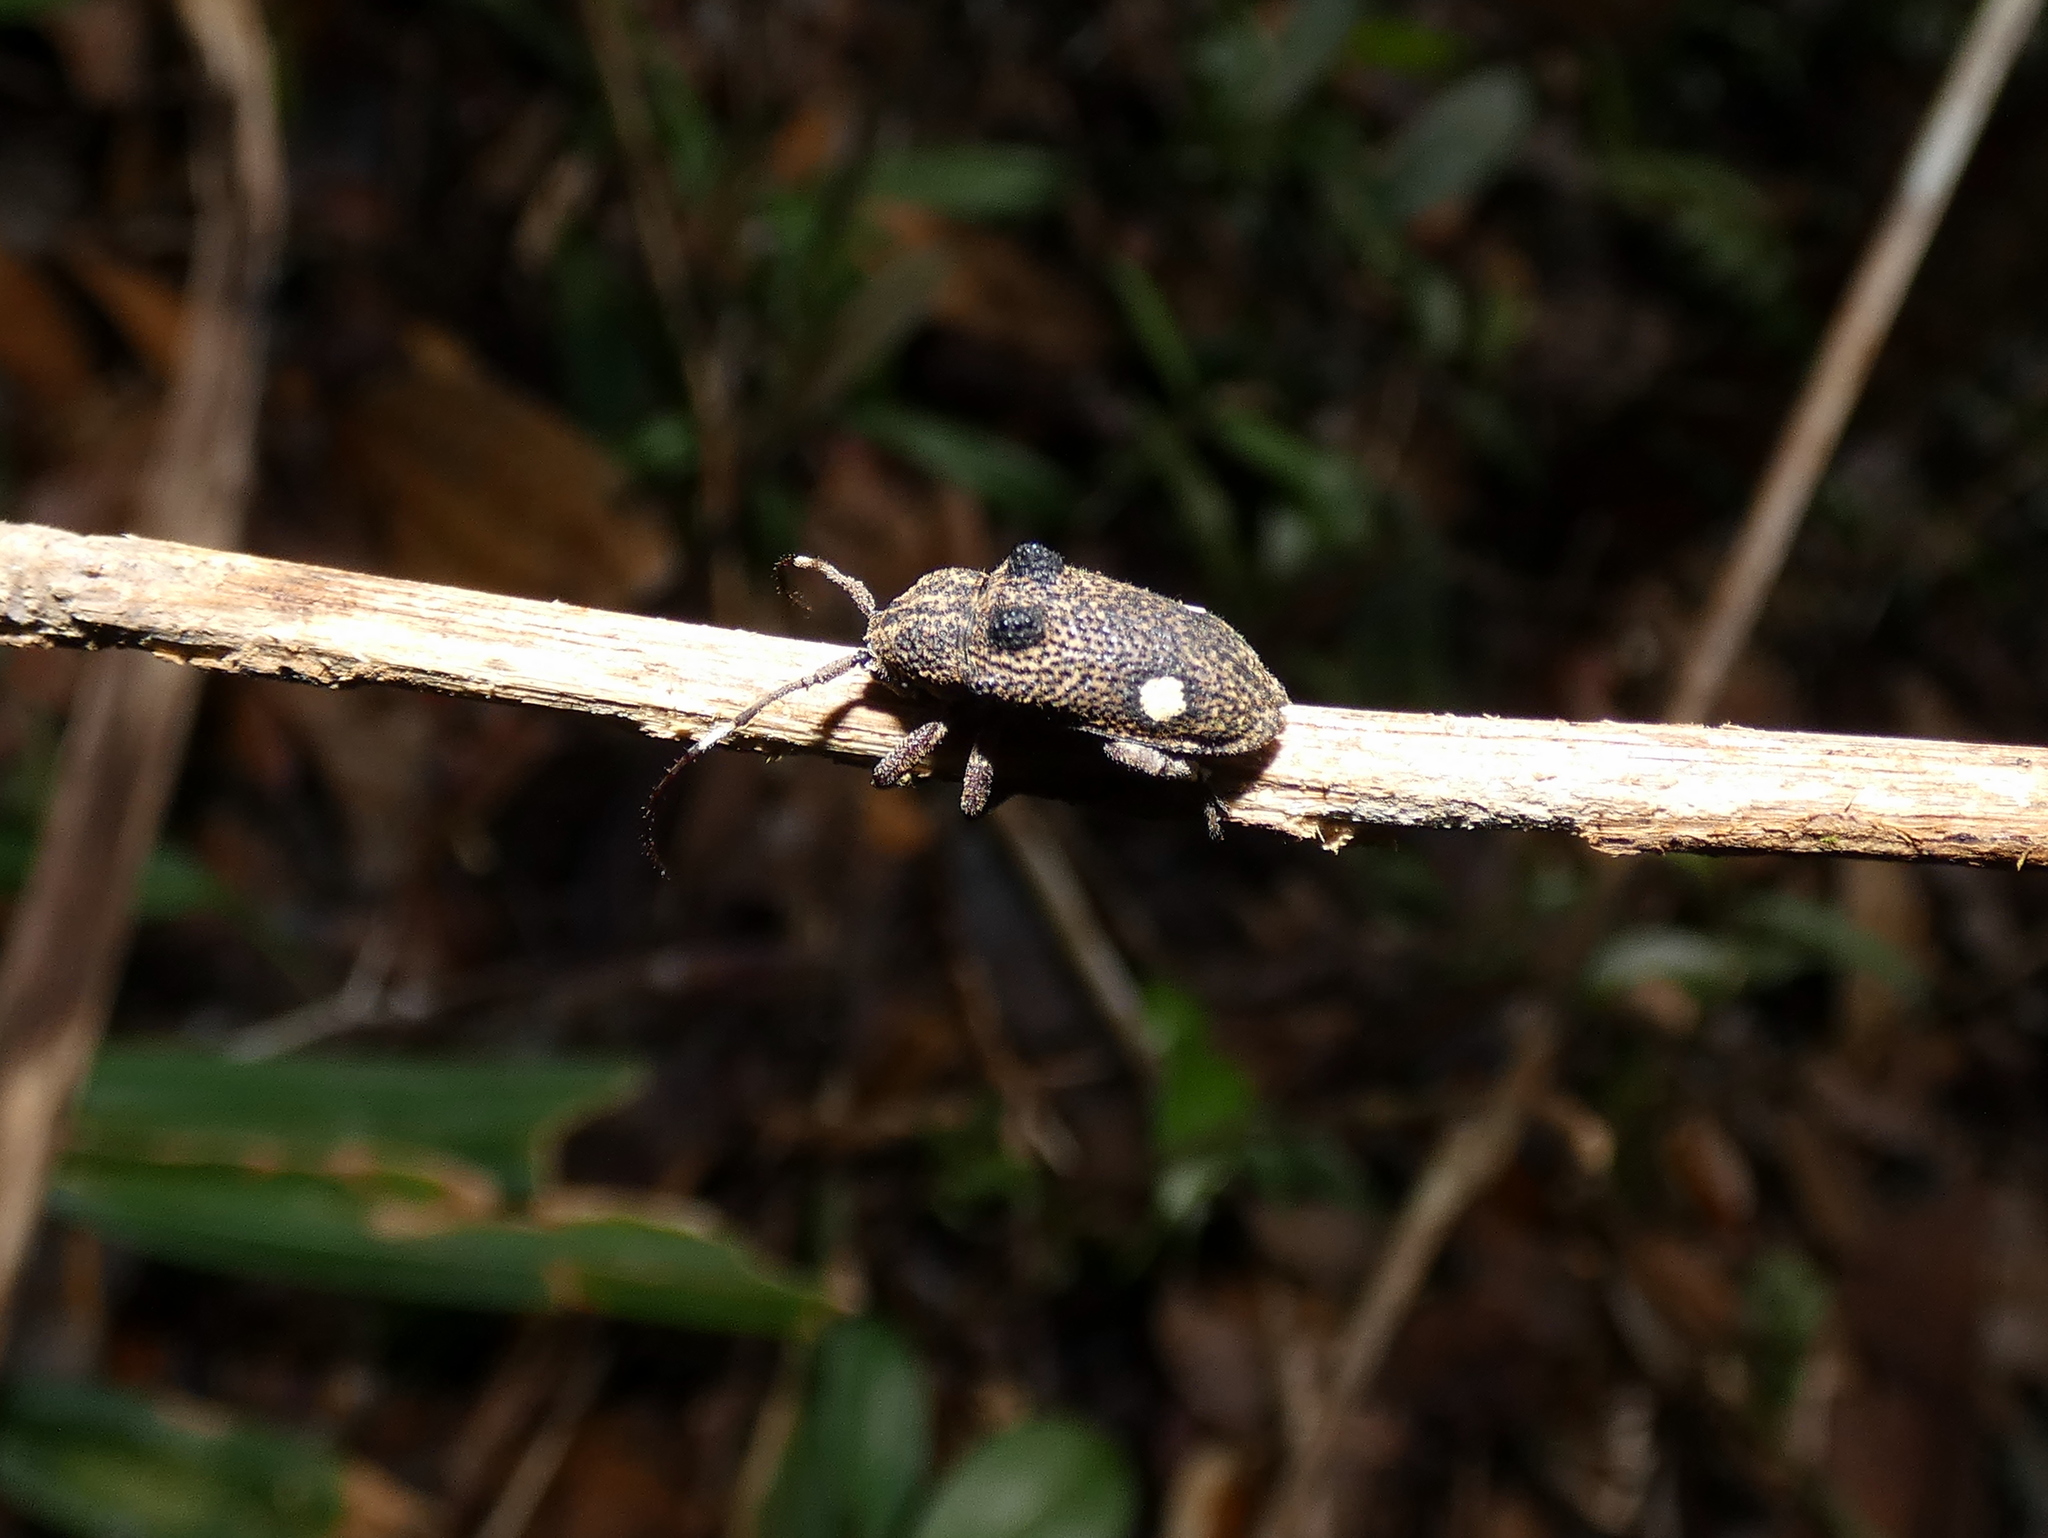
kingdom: Animalia
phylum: Arthropoda
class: Insecta
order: Coleoptera
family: Cerambycidae
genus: Moron
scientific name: Moron distigma
